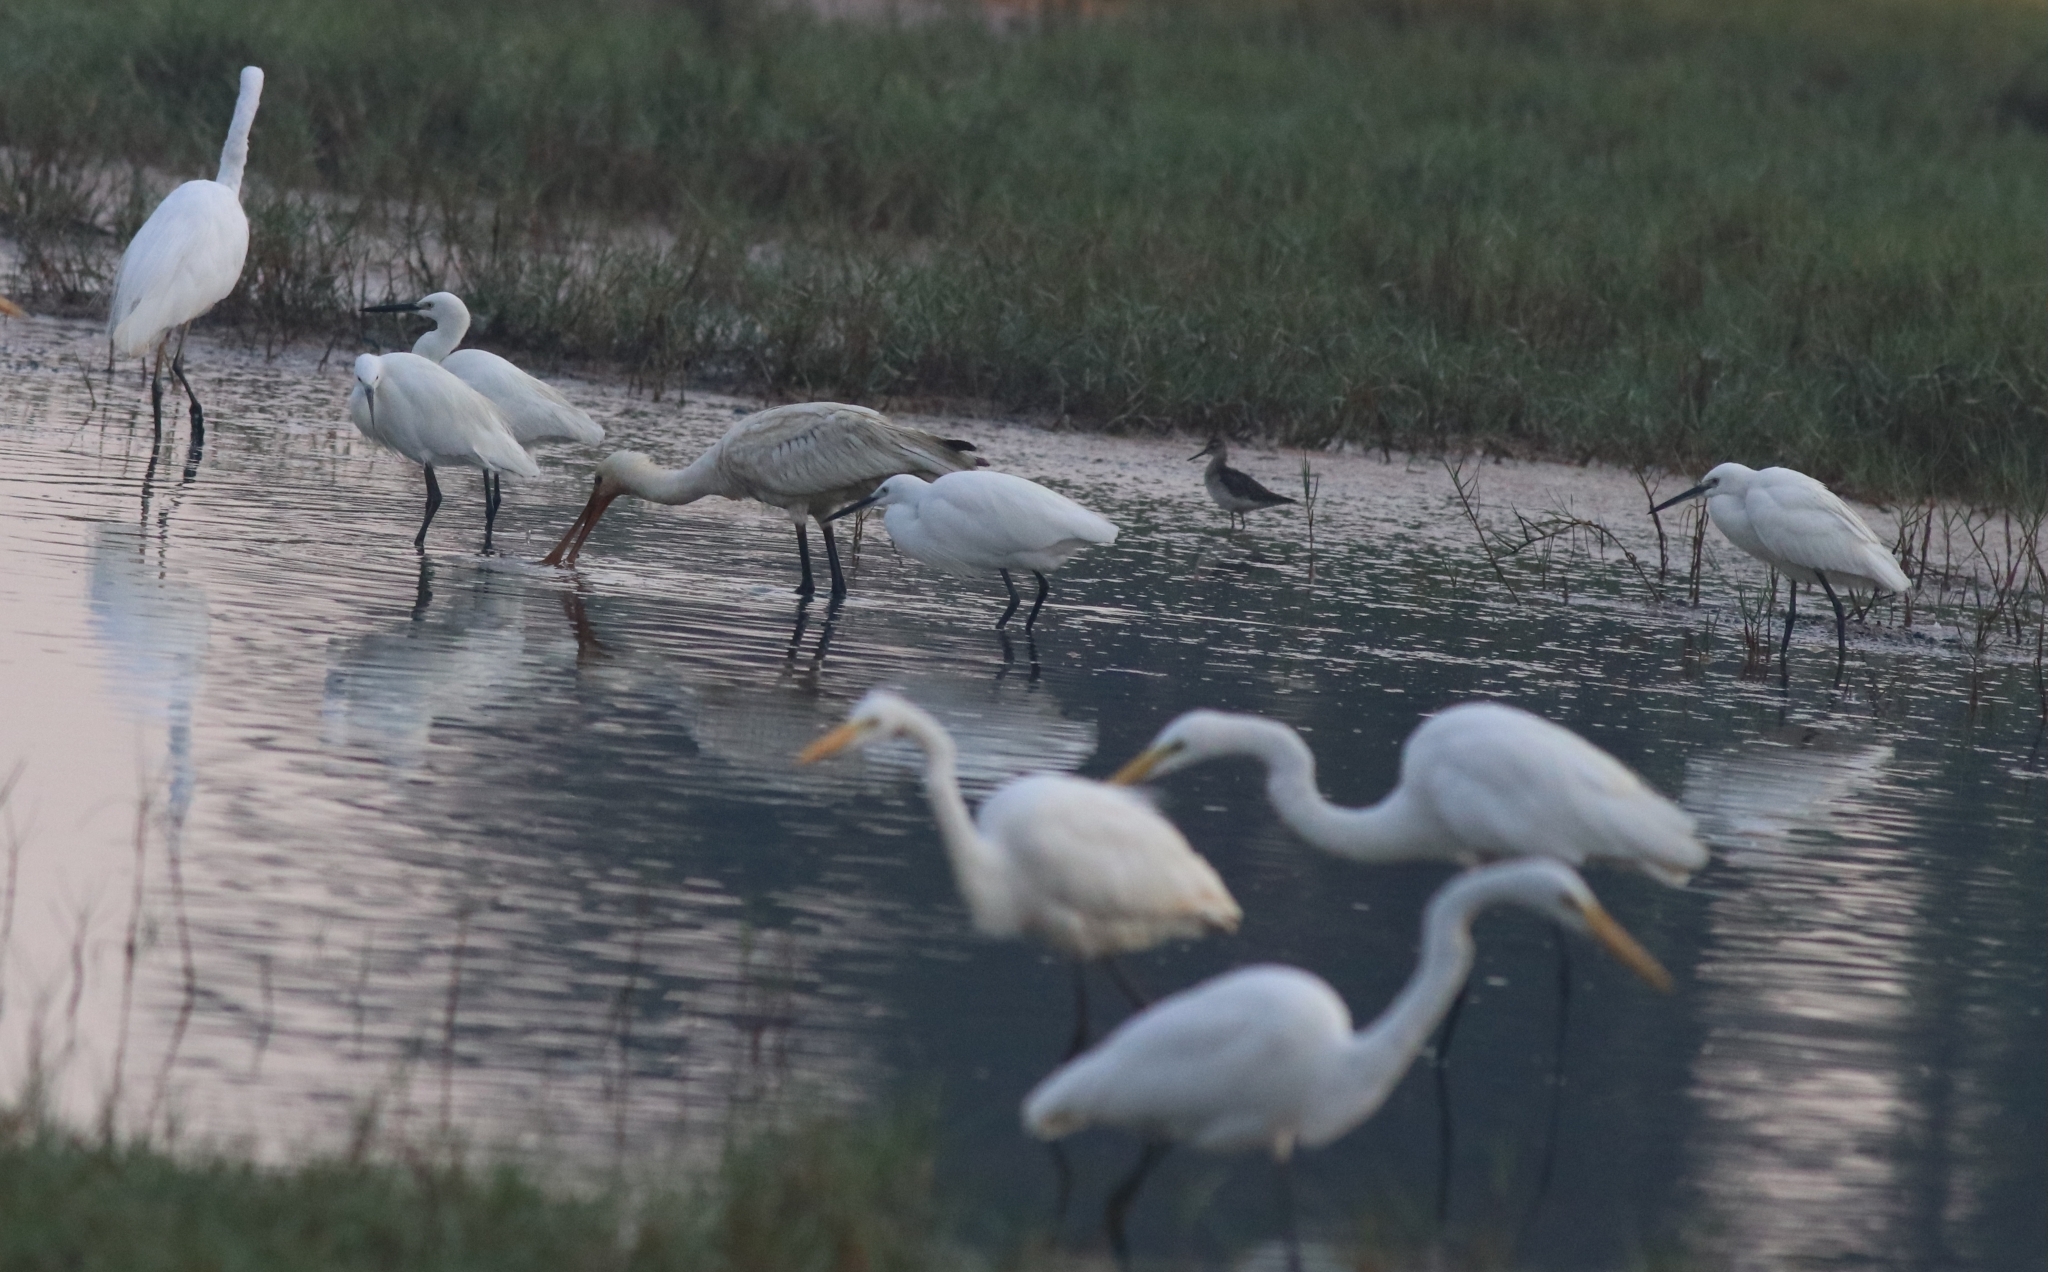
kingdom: Animalia
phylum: Chordata
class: Aves
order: Pelecaniformes
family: Ardeidae
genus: Egretta
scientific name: Egretta garzetta
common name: Little egret
